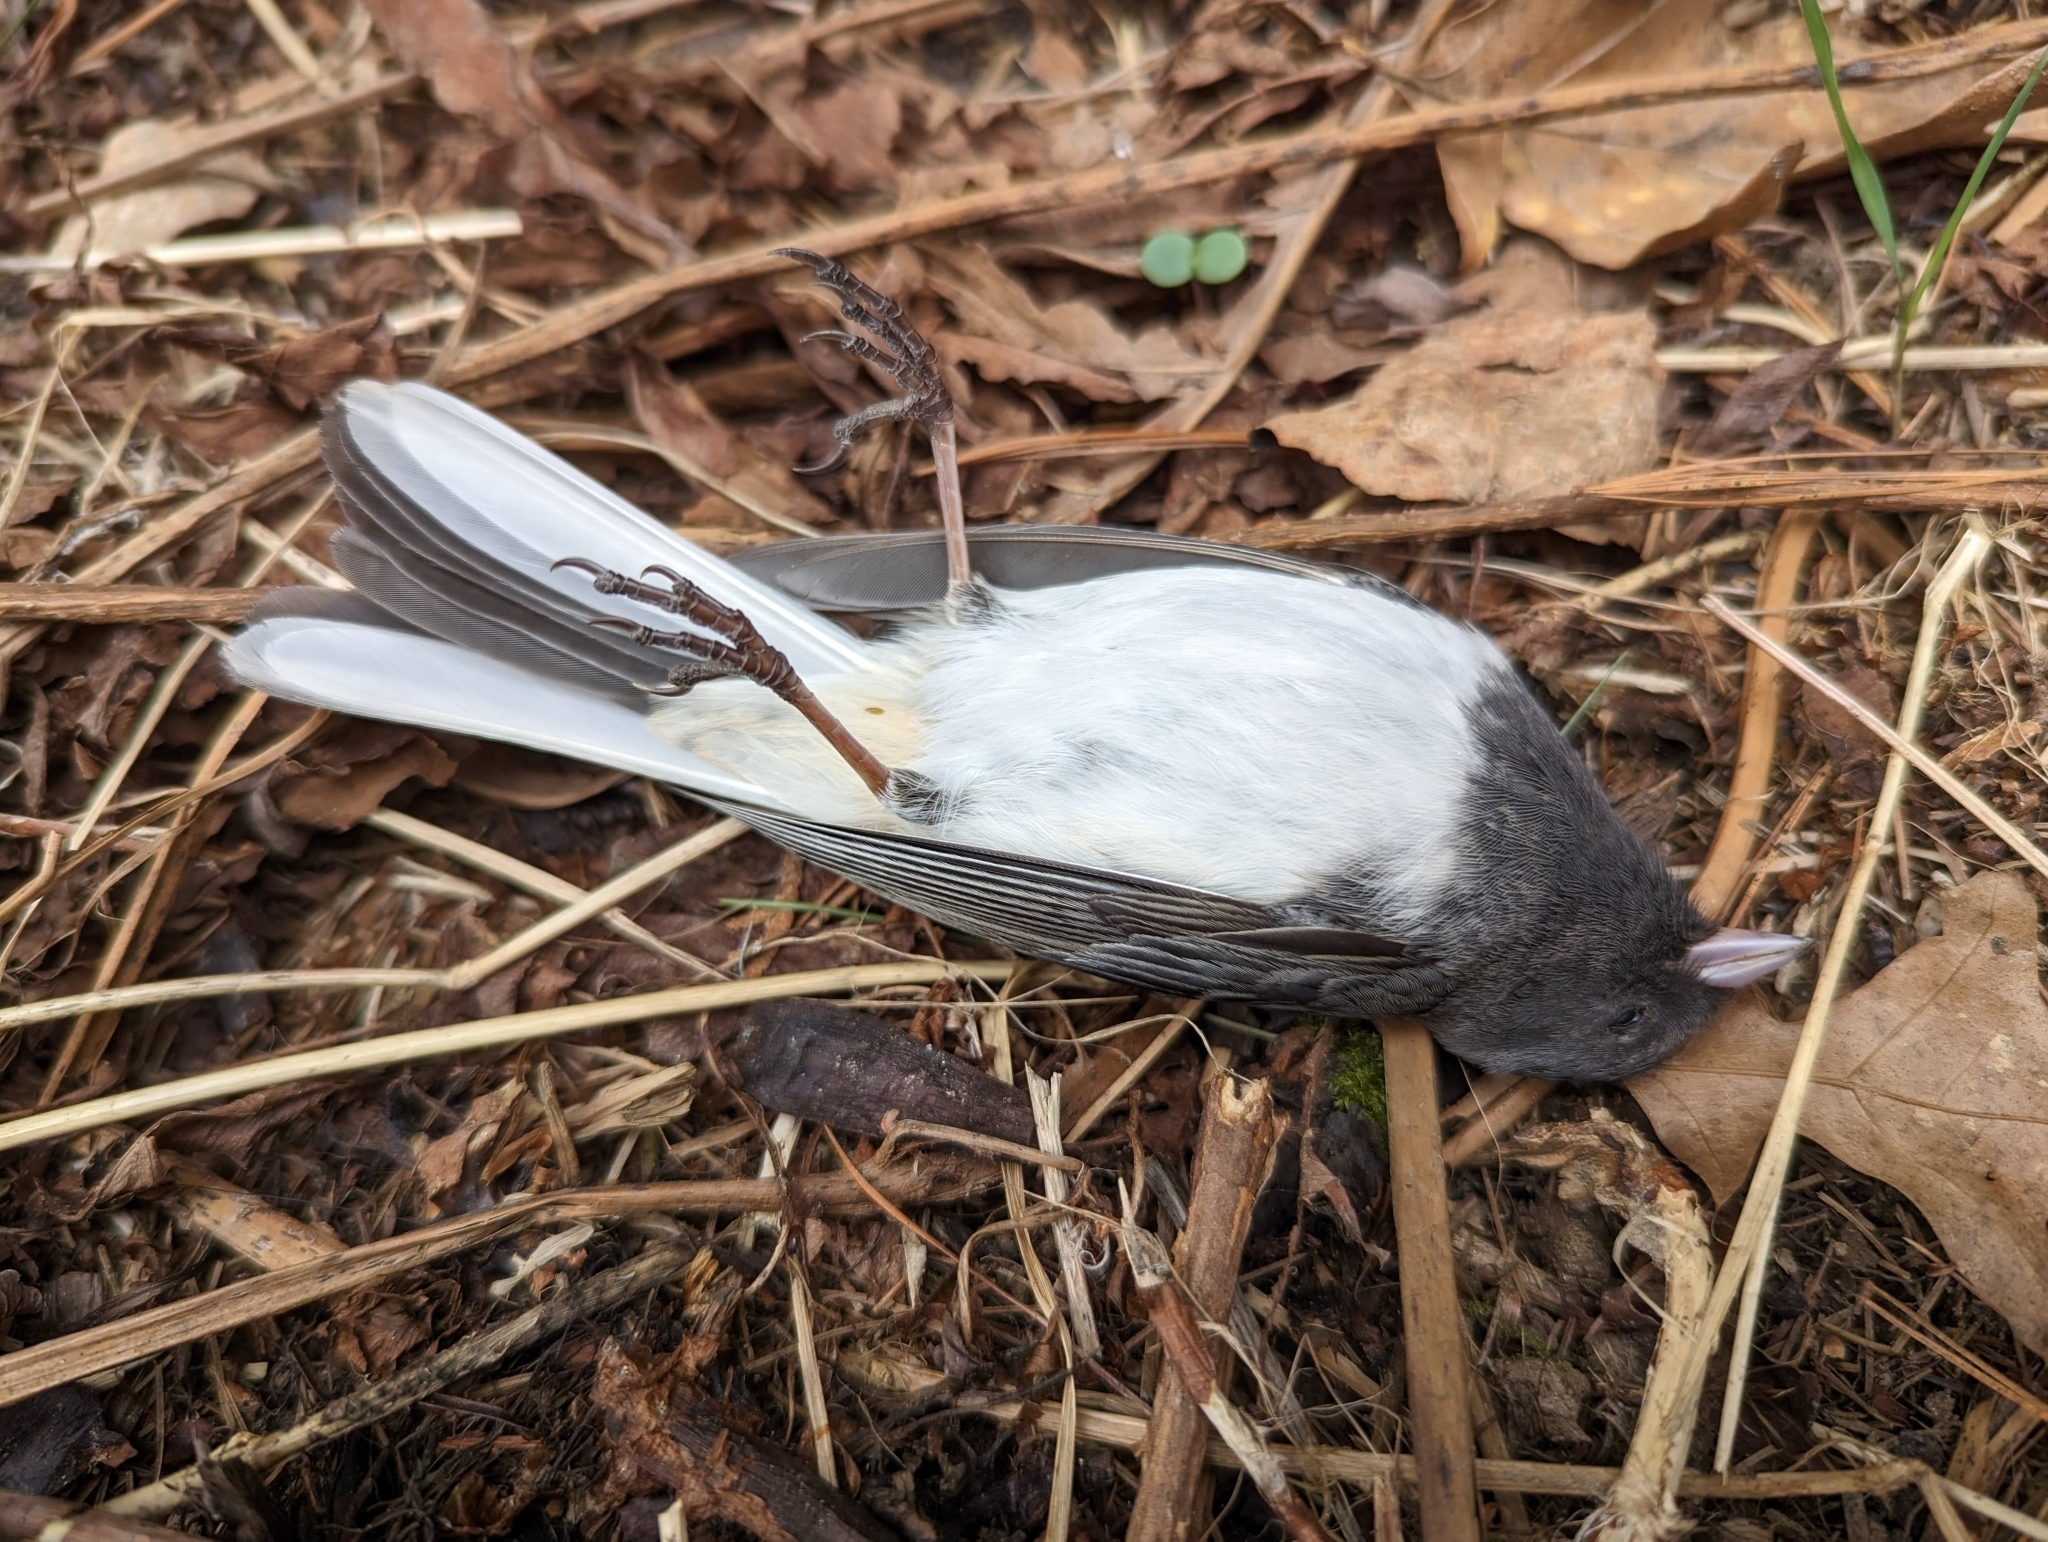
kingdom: Animalia
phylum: Chordata
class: Aves
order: Passeriformes
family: Passerellidae
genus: Junco
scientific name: Junco hyemalis
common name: Dark-eyed junco
